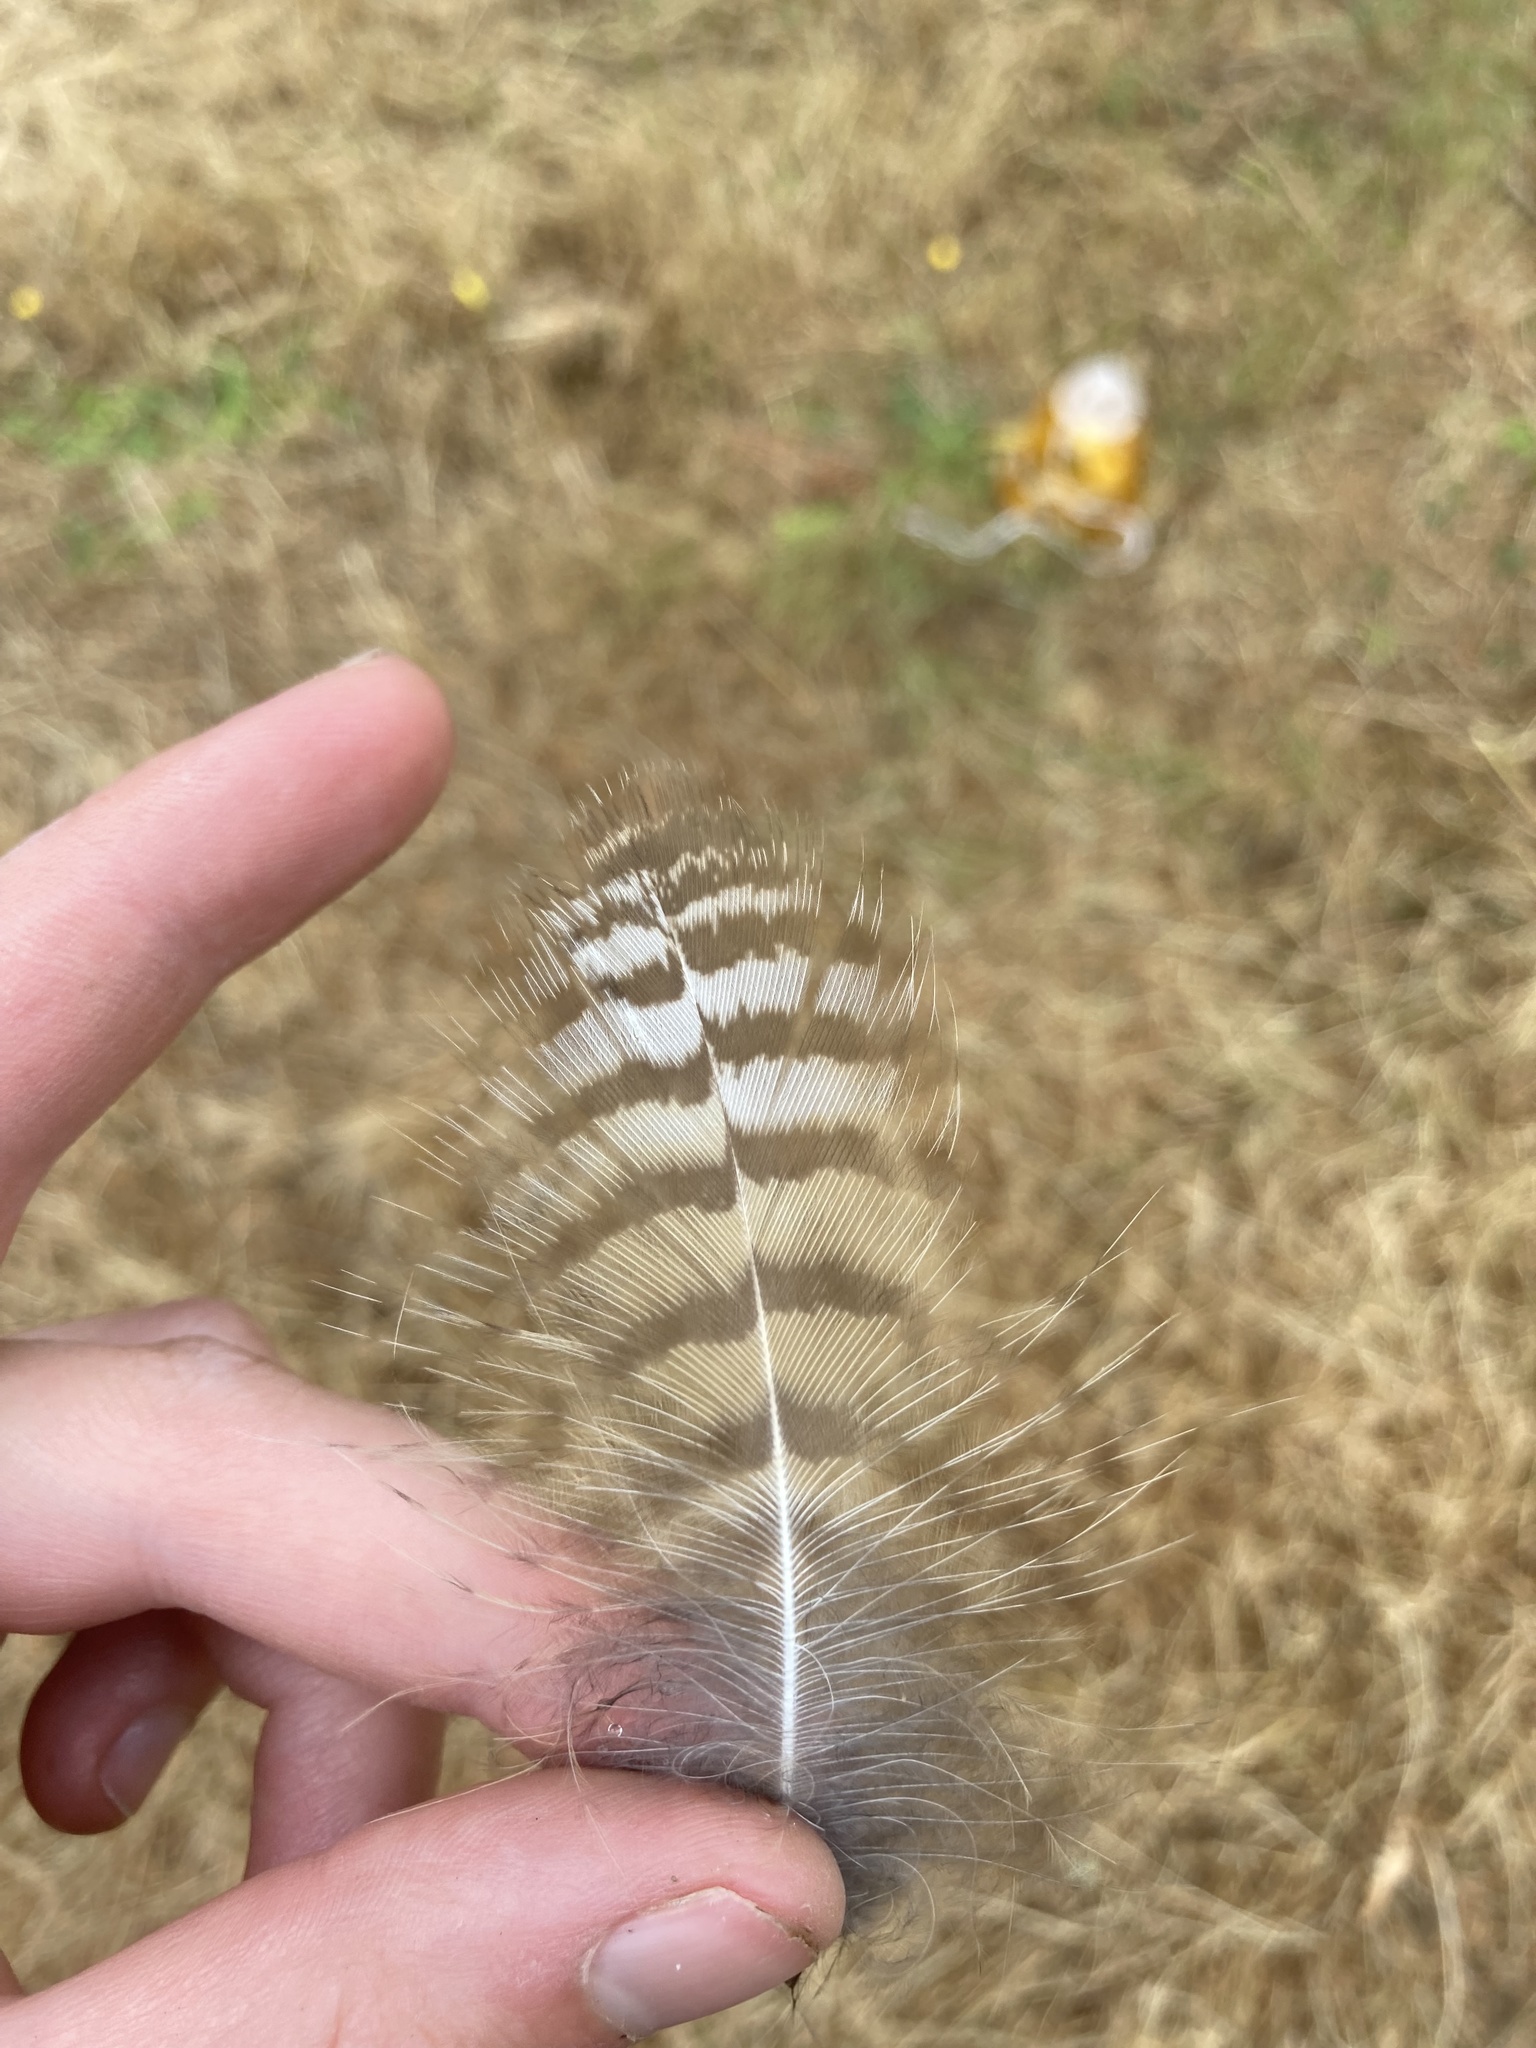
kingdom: Animalia
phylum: Chordata
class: Aves
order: Strigiformes
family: Strigidae
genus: Bubo
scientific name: Bubo virginianus
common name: Great horned owl
